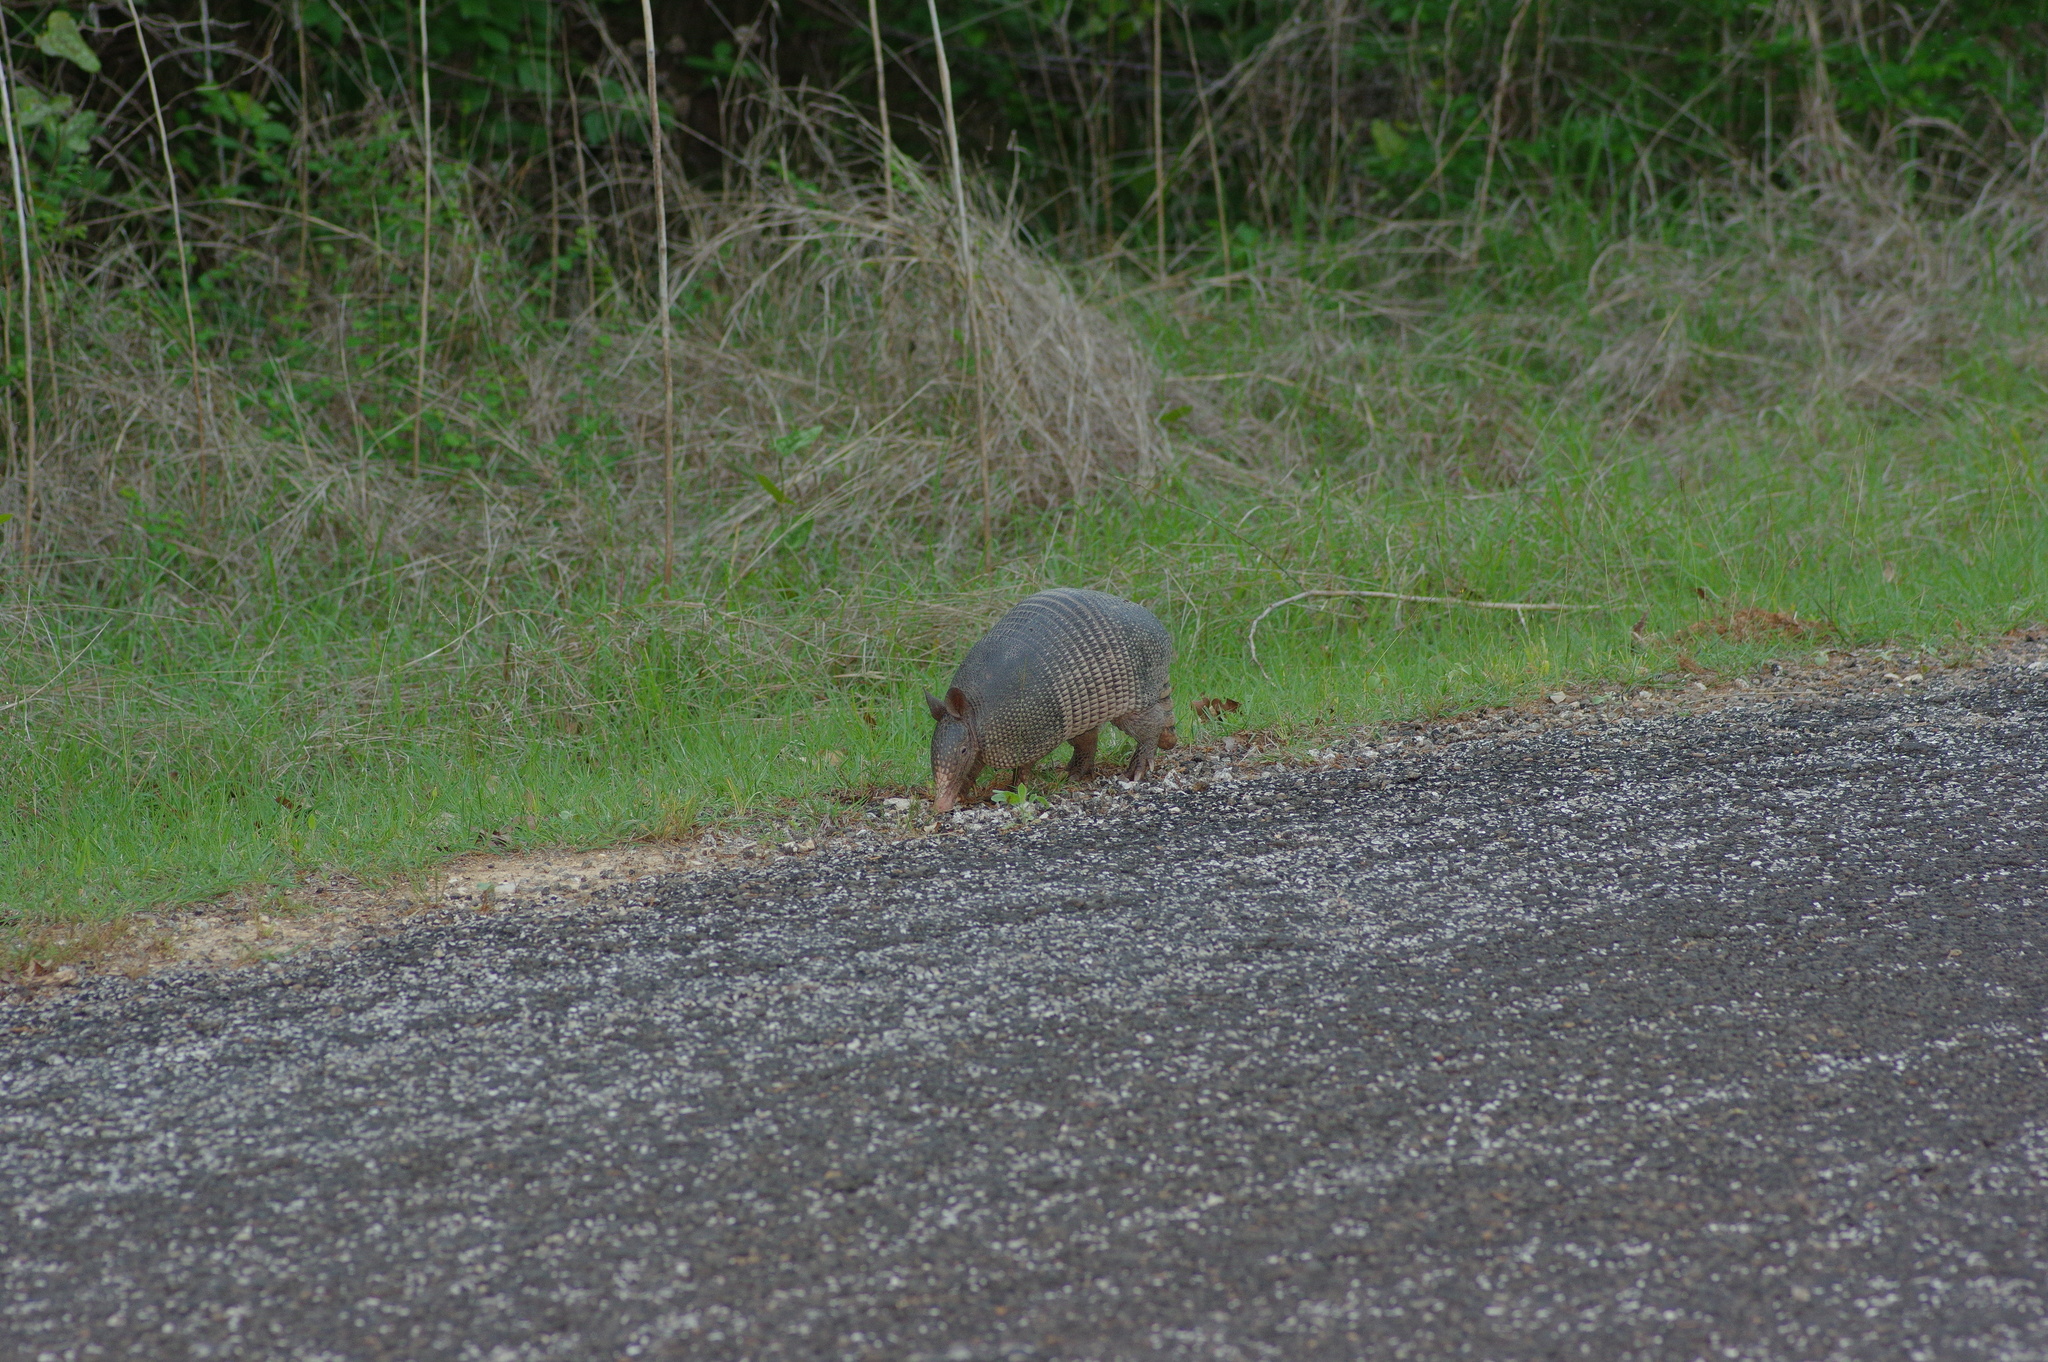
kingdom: Animalia
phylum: Chordata
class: Mammalia
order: Cingulata
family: Dasypodidae
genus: Dasypus
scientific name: Dasypus novemcinctus
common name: Nine-banded armadillo
